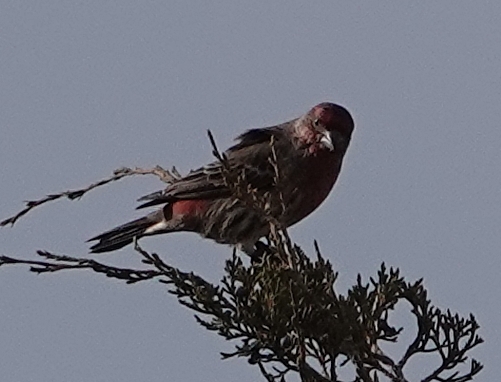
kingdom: Animalia
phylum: Chordata
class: Aves
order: Passeriformes
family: Fringillidae
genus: Haemorhous
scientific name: Haemorhous mexicanus
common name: House finch
